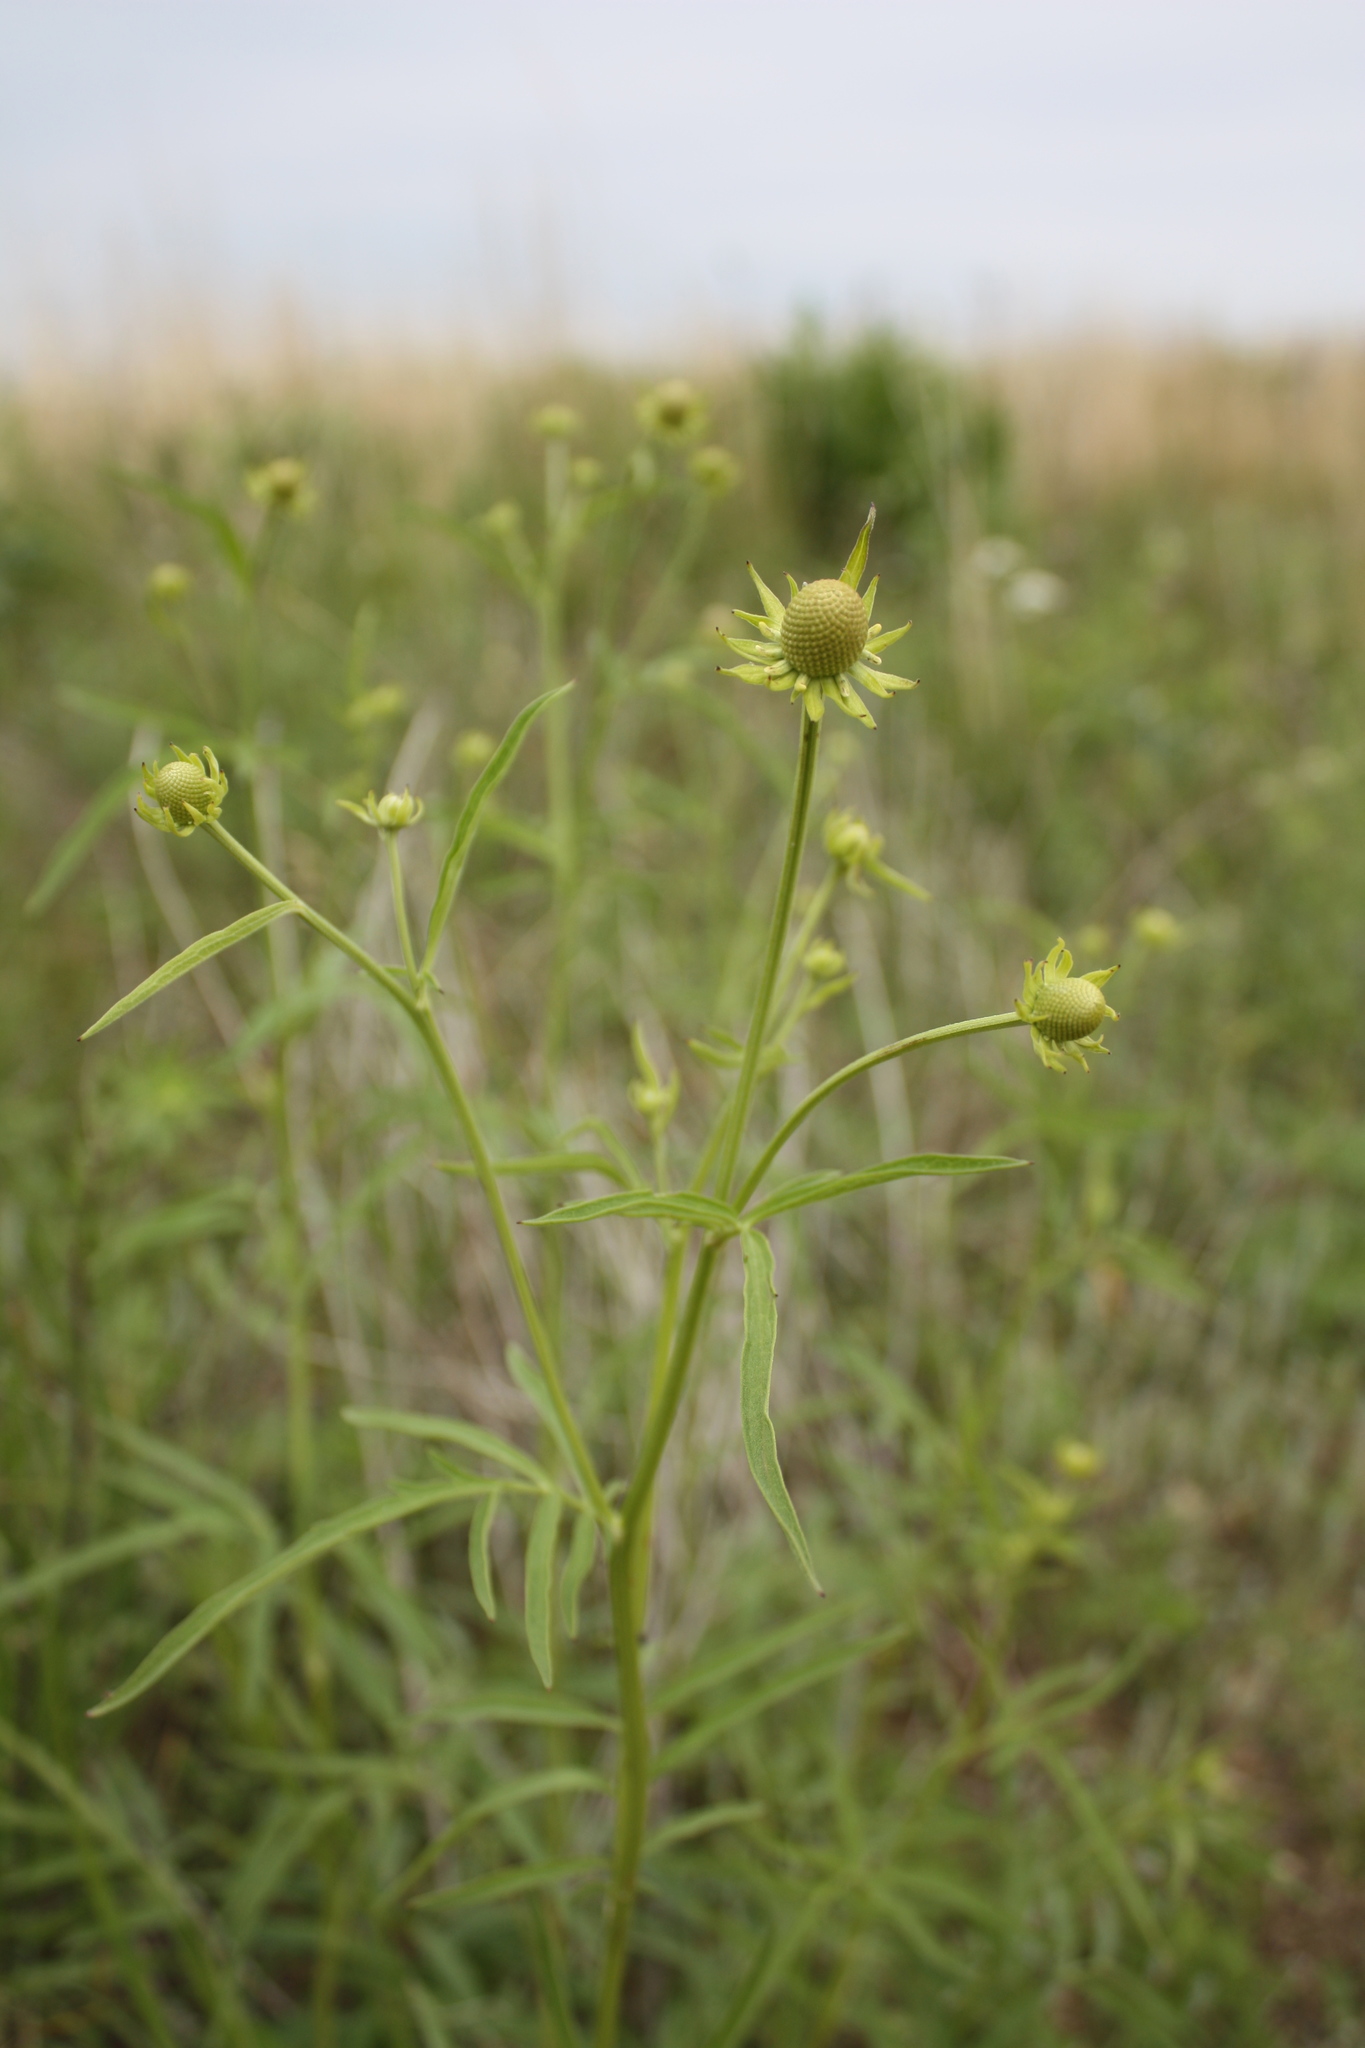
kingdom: Plantae
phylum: Tracheophyta
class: Magnoliopsida
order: Asterales
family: Asteraceae
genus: Ratibida
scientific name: Ratibida pinnata
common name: Drooping prairie-coneflower
